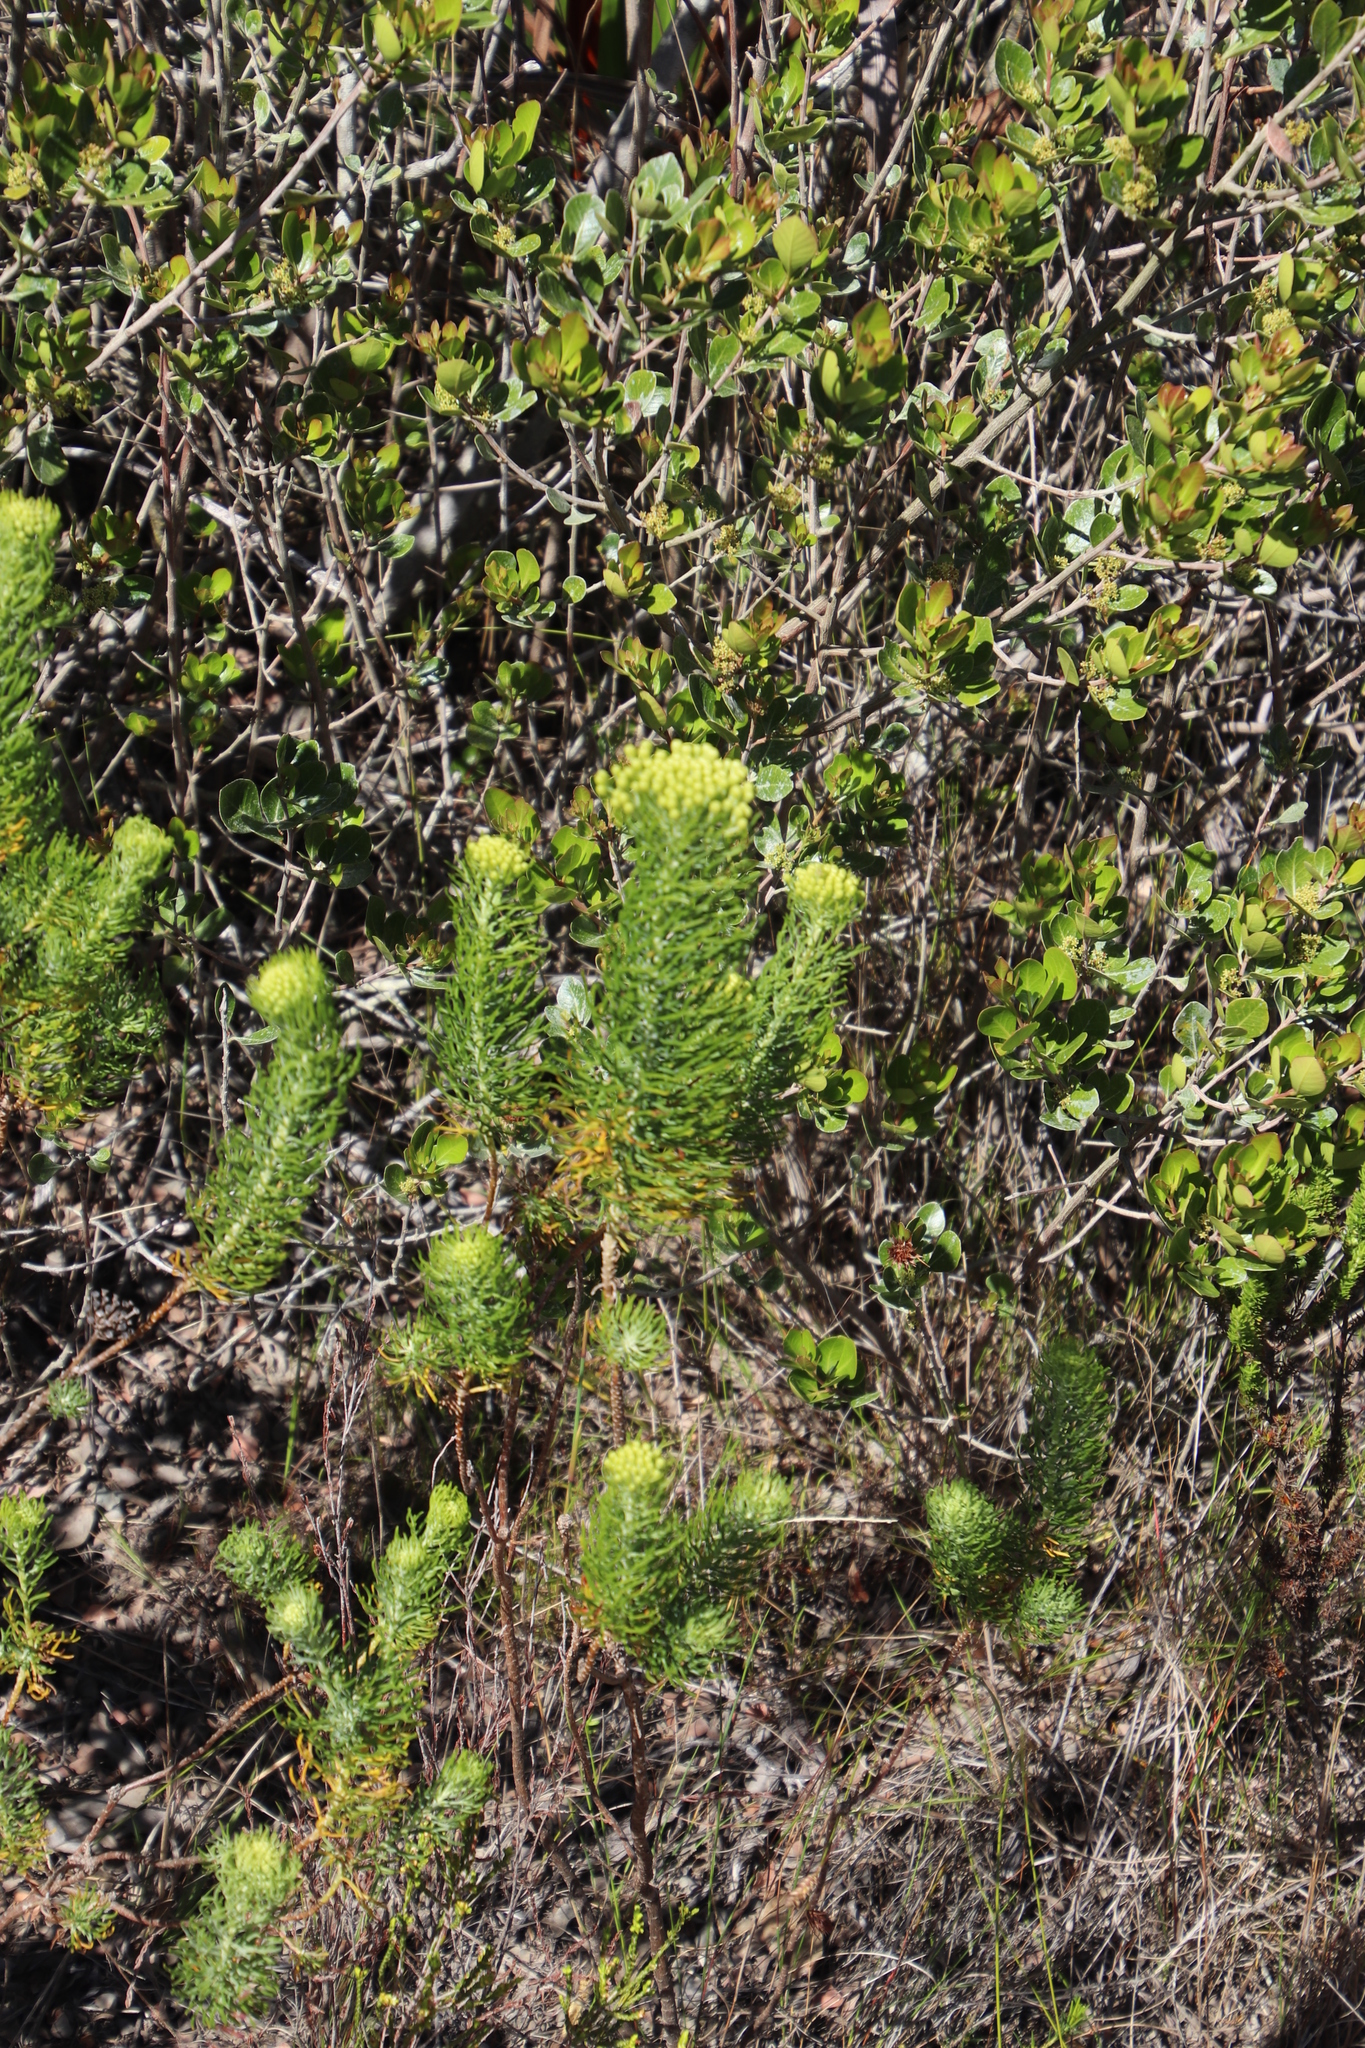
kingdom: Plantae
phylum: Tracheophyta
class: Magnoliopsida
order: Asterales
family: Asteraceae
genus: Athanasia
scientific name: Athanasia crithmifolia
